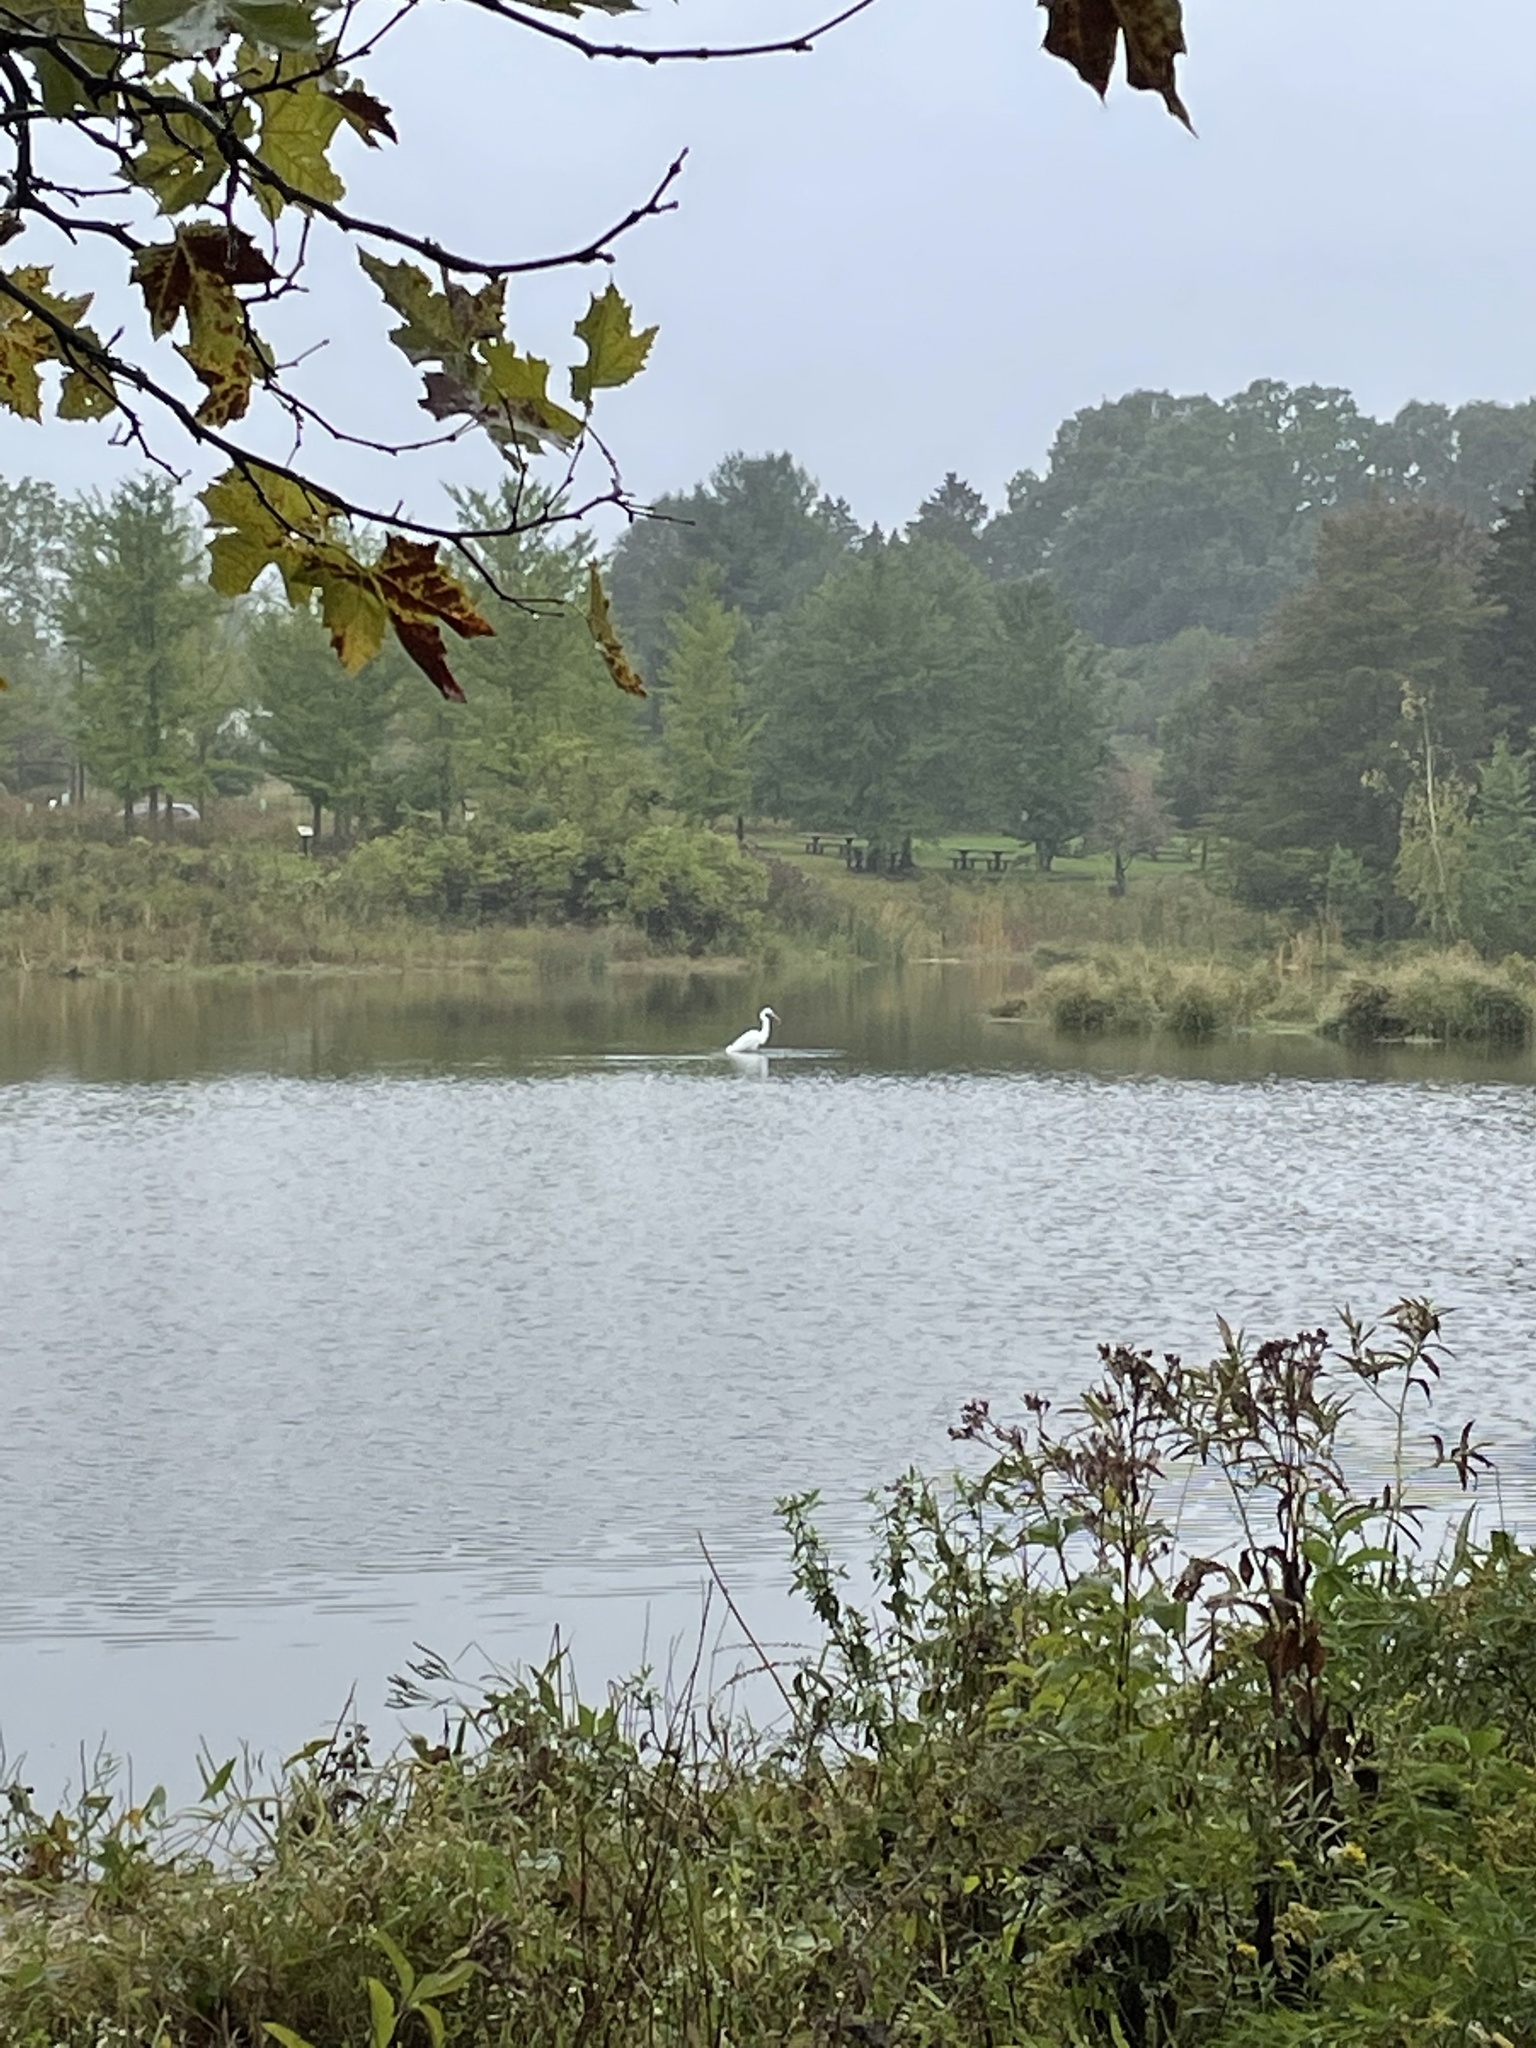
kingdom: Animalia
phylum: Chordata
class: Aves
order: Pelecaniformes
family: Ardeidae
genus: Ardea
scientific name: Ardea alba
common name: Great egret
